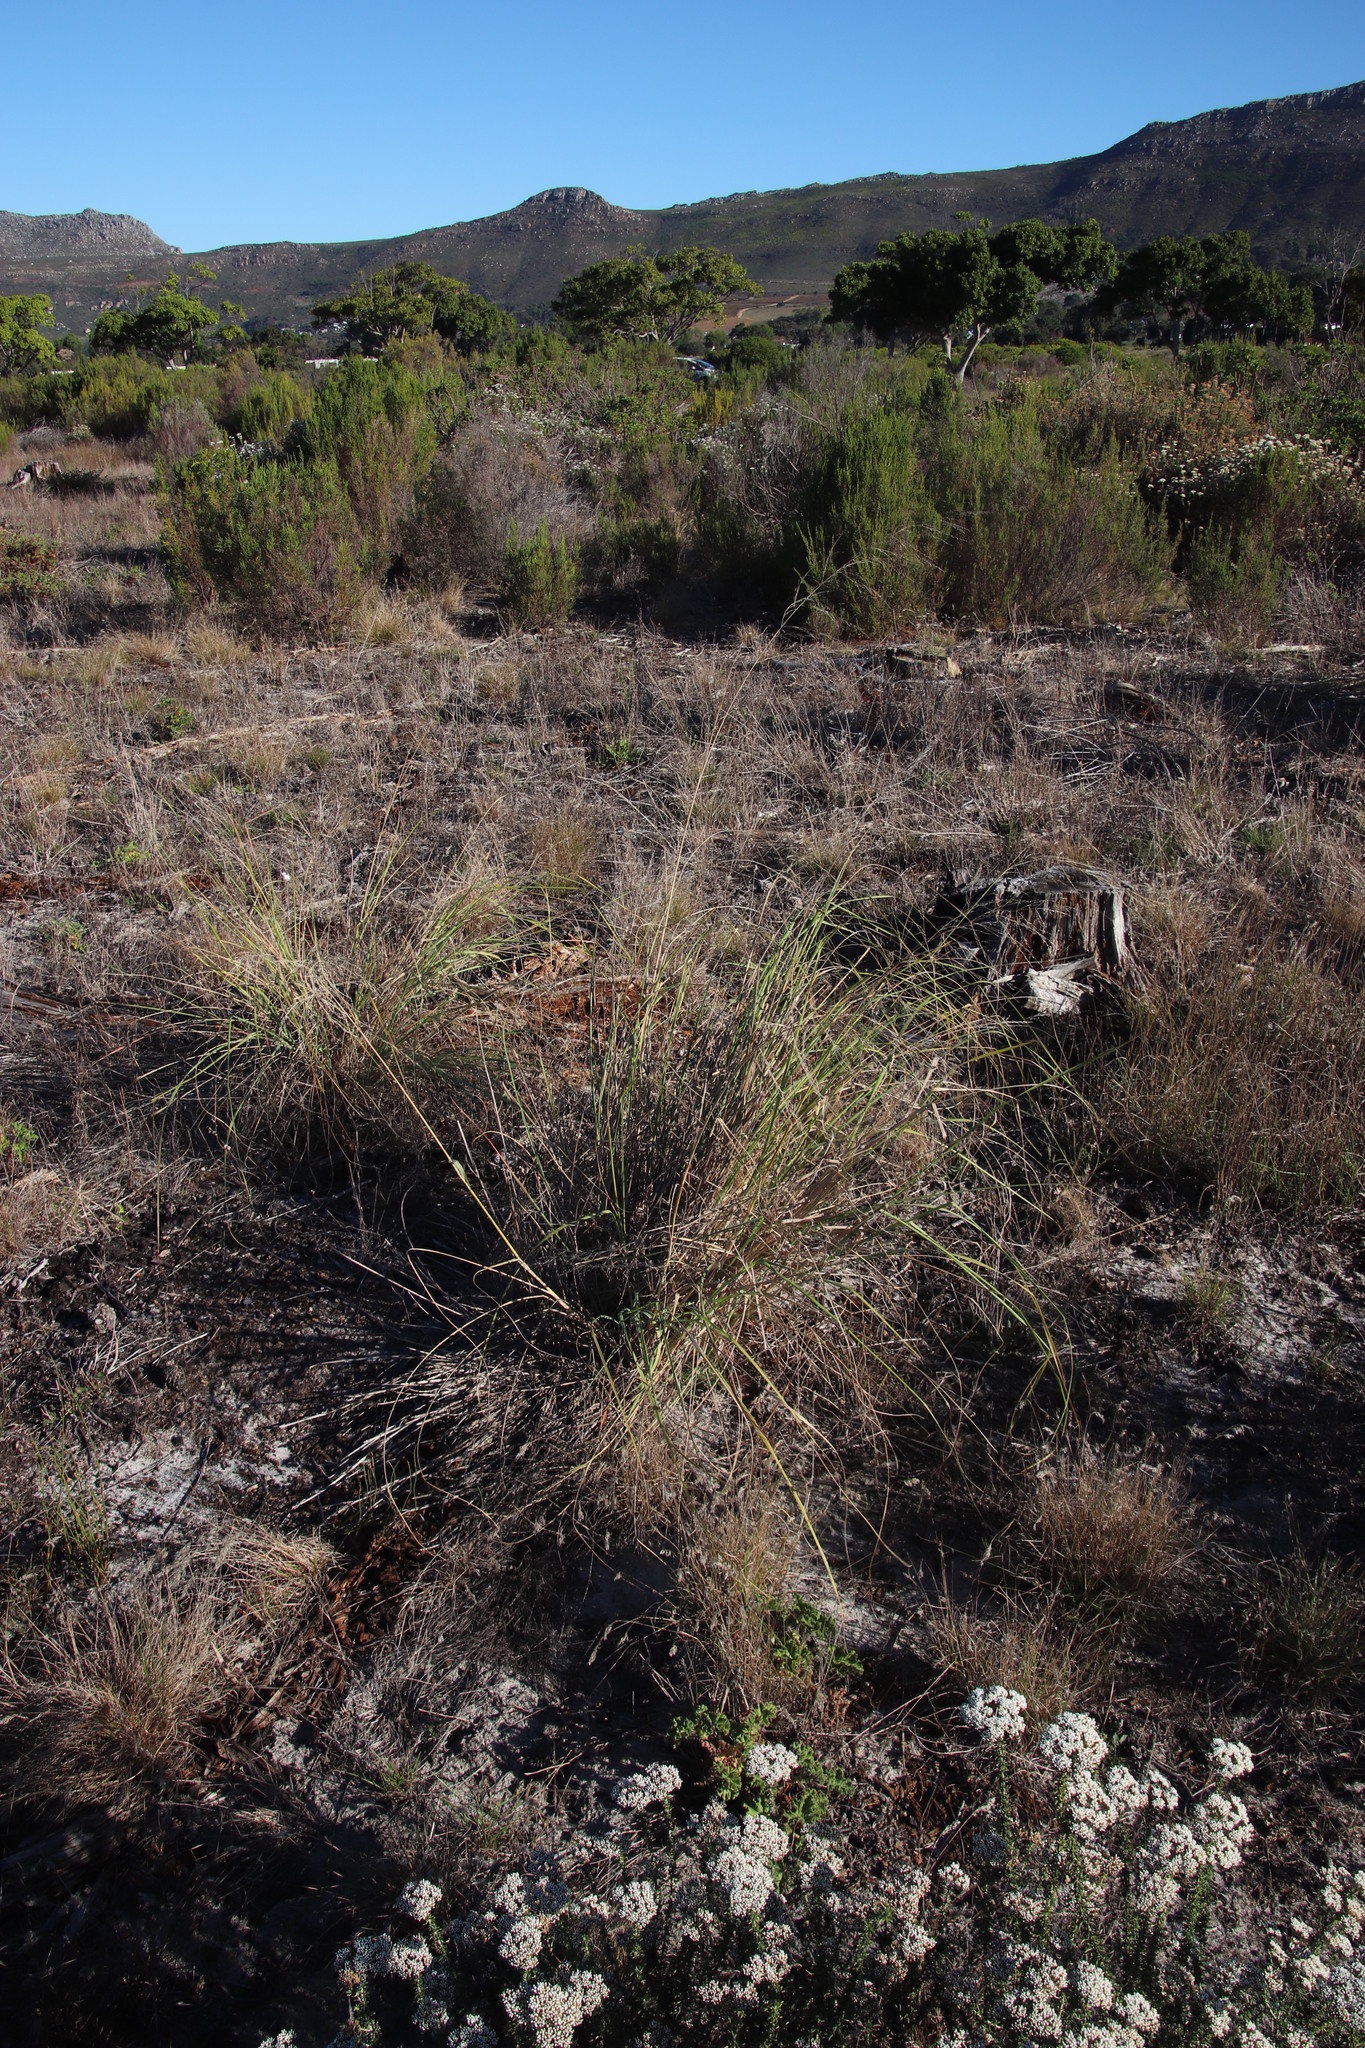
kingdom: Plantae
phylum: Tracheophyta
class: Liliopsida
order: Poales
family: Poaceae
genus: Eragrostis
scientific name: Eragrostis curvula
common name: African love-grass
